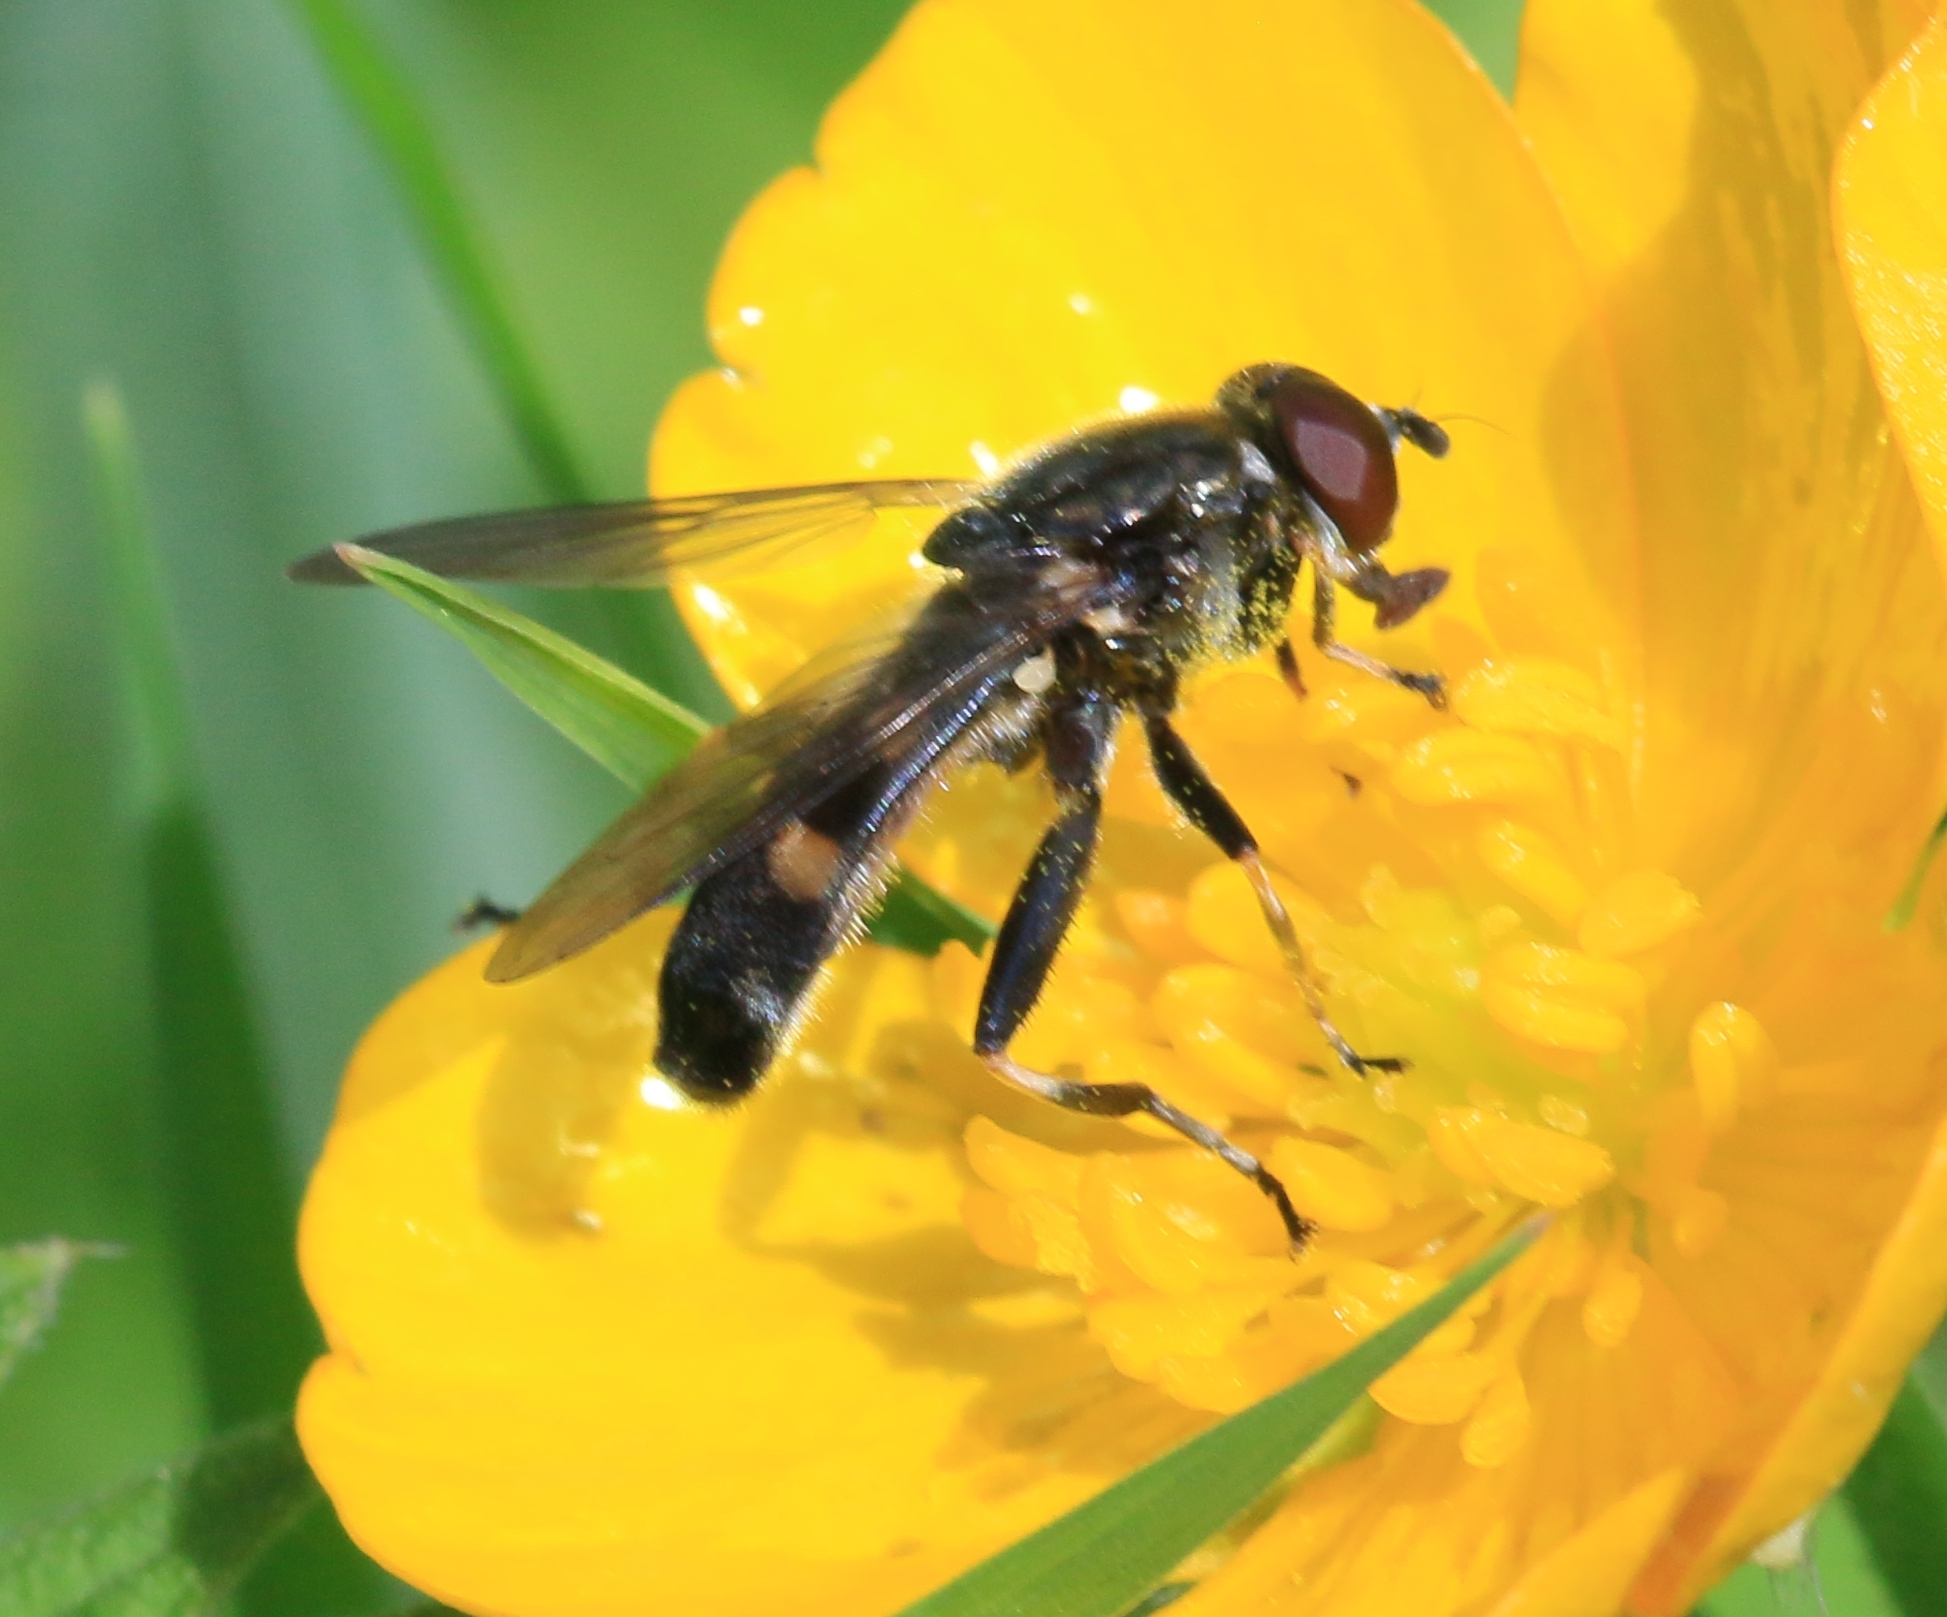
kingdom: Animalia
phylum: Arthropoda
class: Insecta
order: Diptera
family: Syrphidae
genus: Xylota
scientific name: Xylota jakutorum
